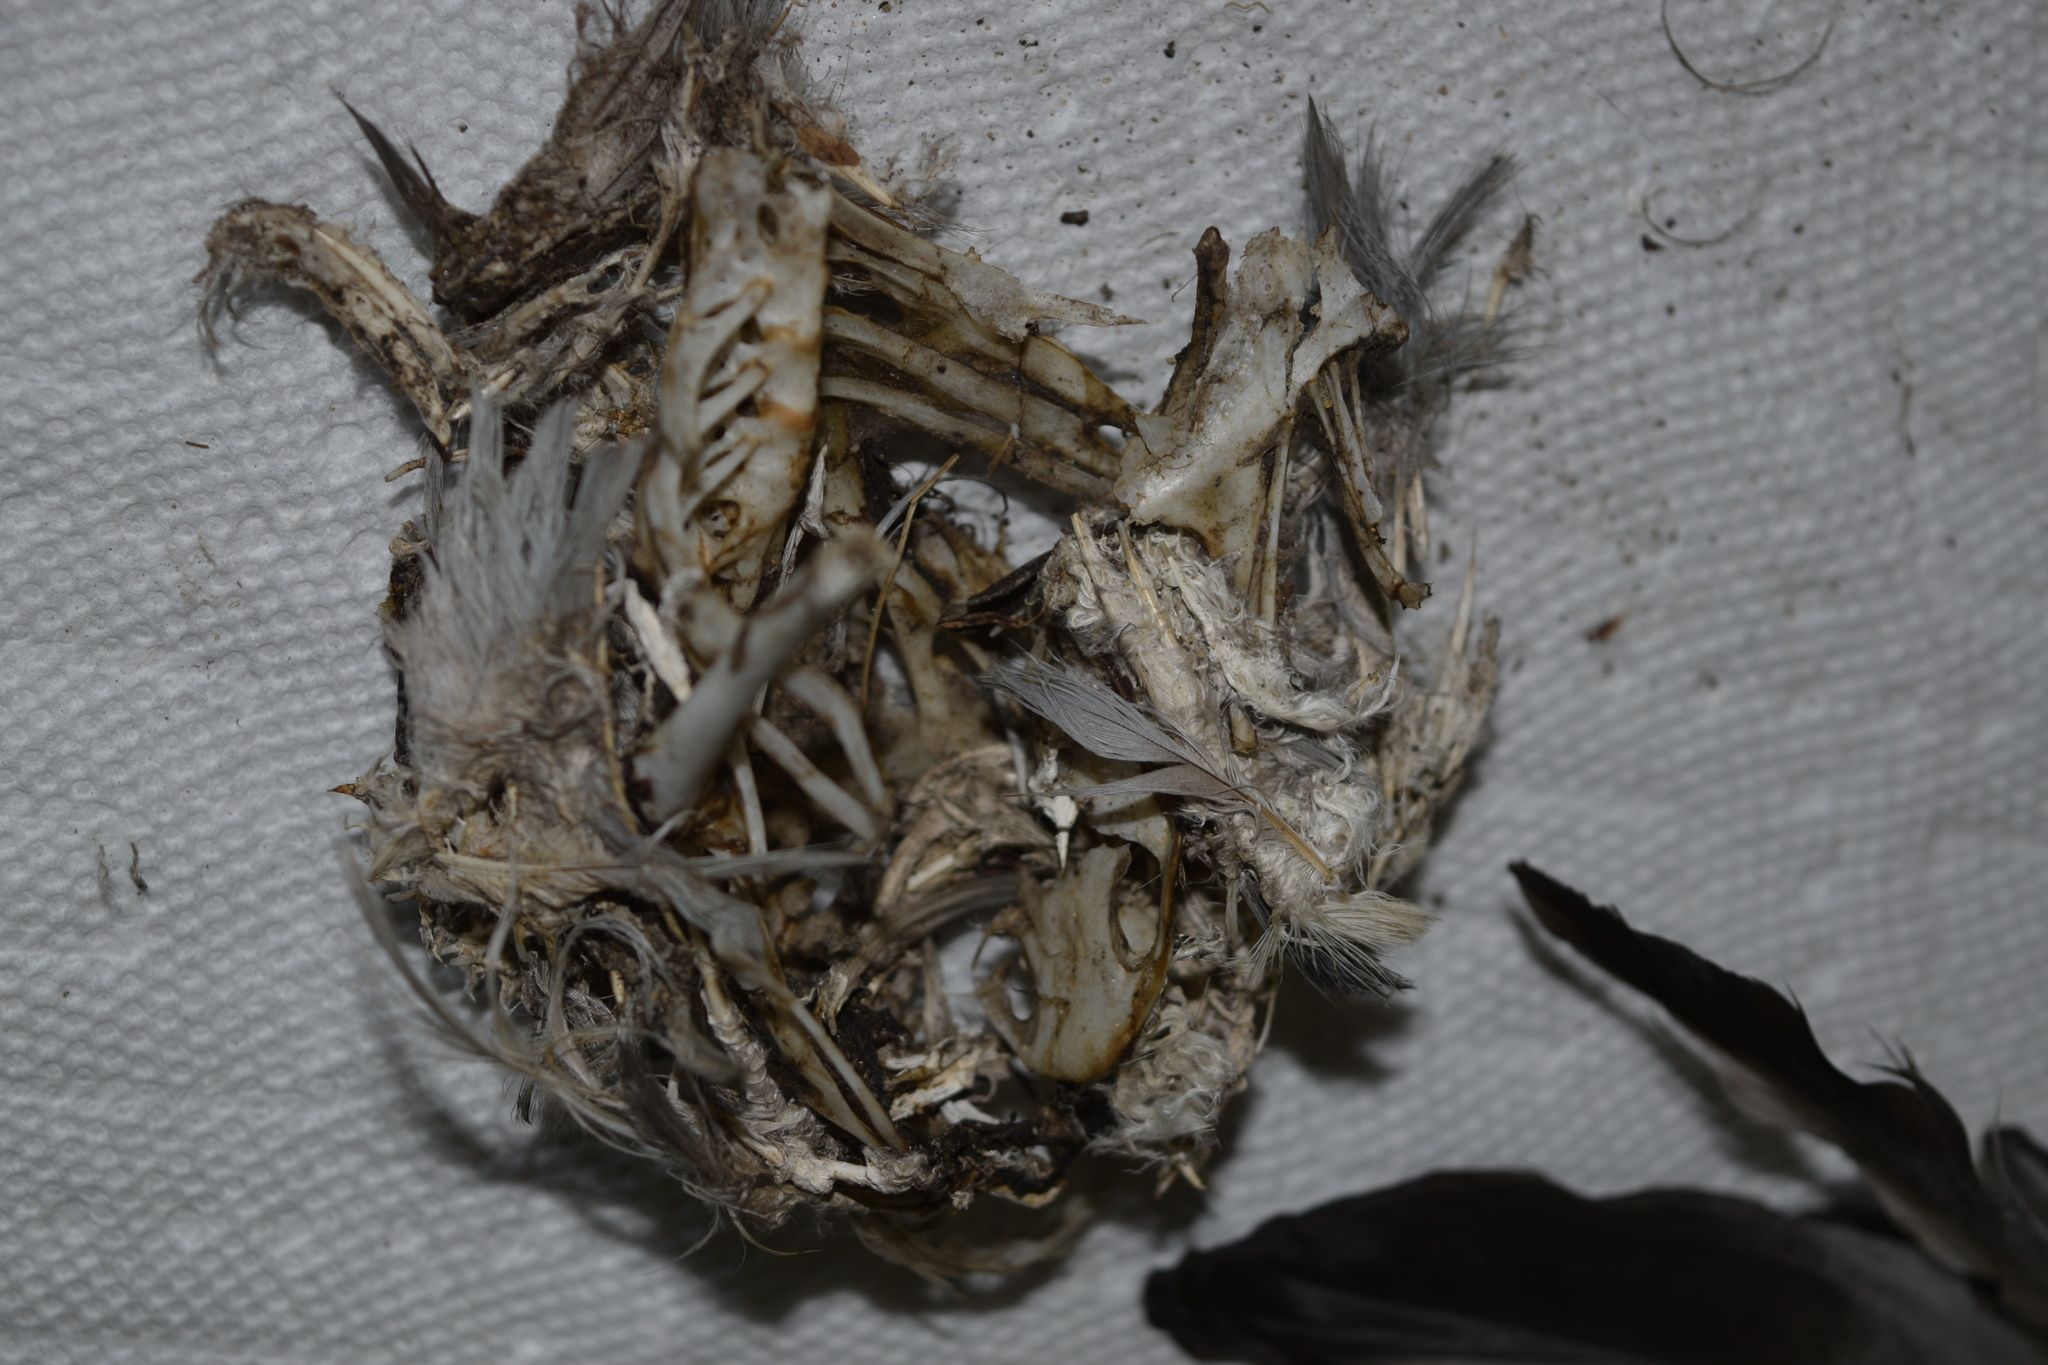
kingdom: Animalia
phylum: Chordata
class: Aves
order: Columbiformes
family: Columbidae
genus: Columba
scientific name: Columba livia
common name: Rock pigeon
